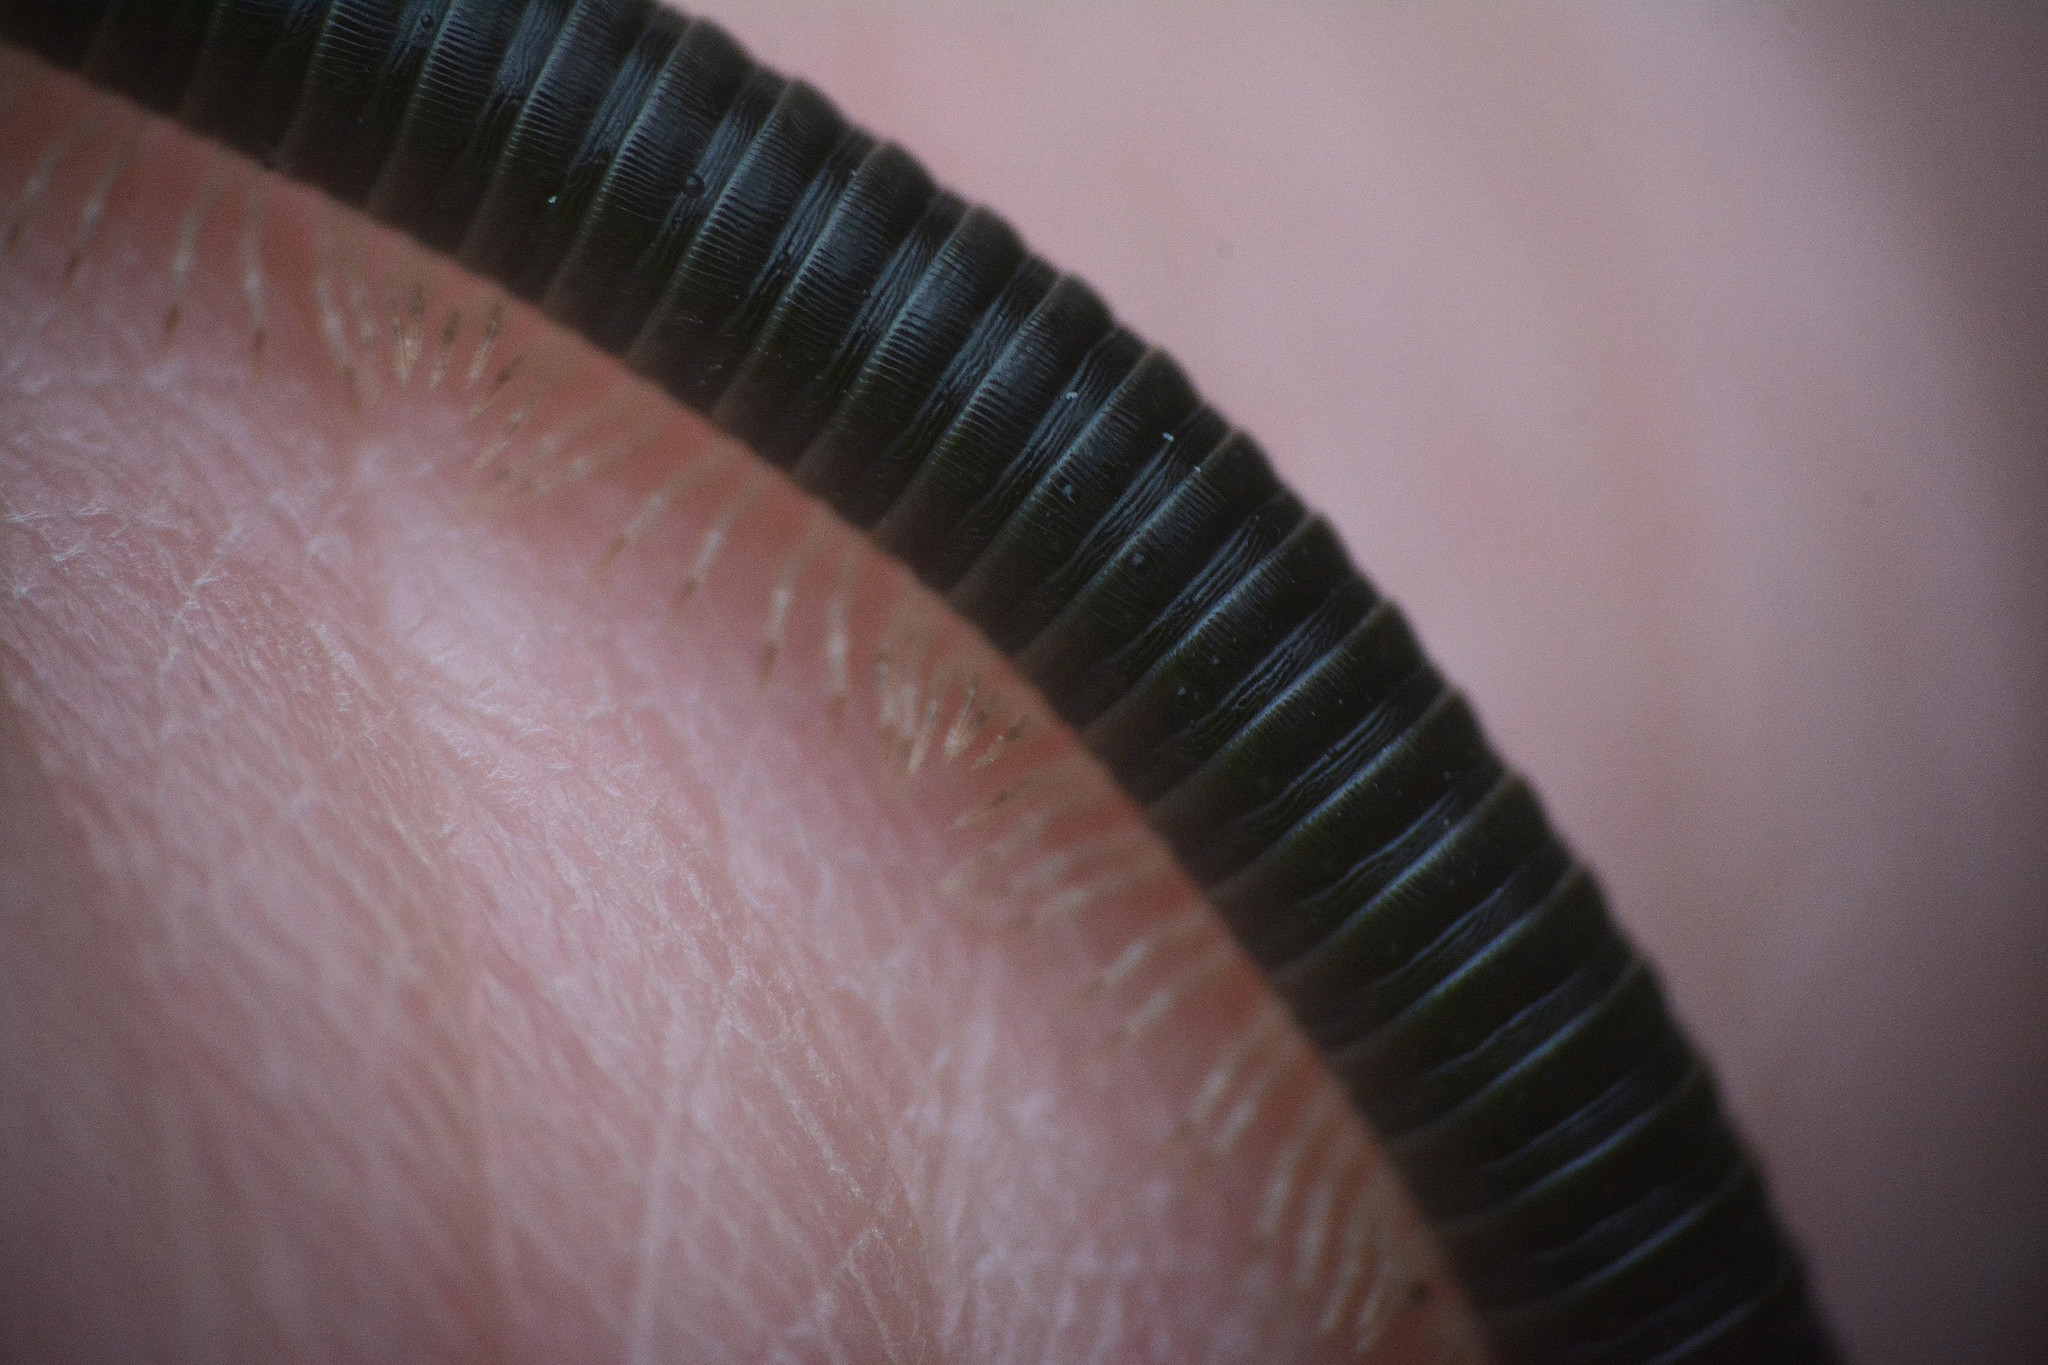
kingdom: Animalia
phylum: Arthropoda
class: Diplopoda
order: Julida
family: Julidae
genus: Tachypodoiulus
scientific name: Tachypodoiulus niger
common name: White-legged snake millipede
